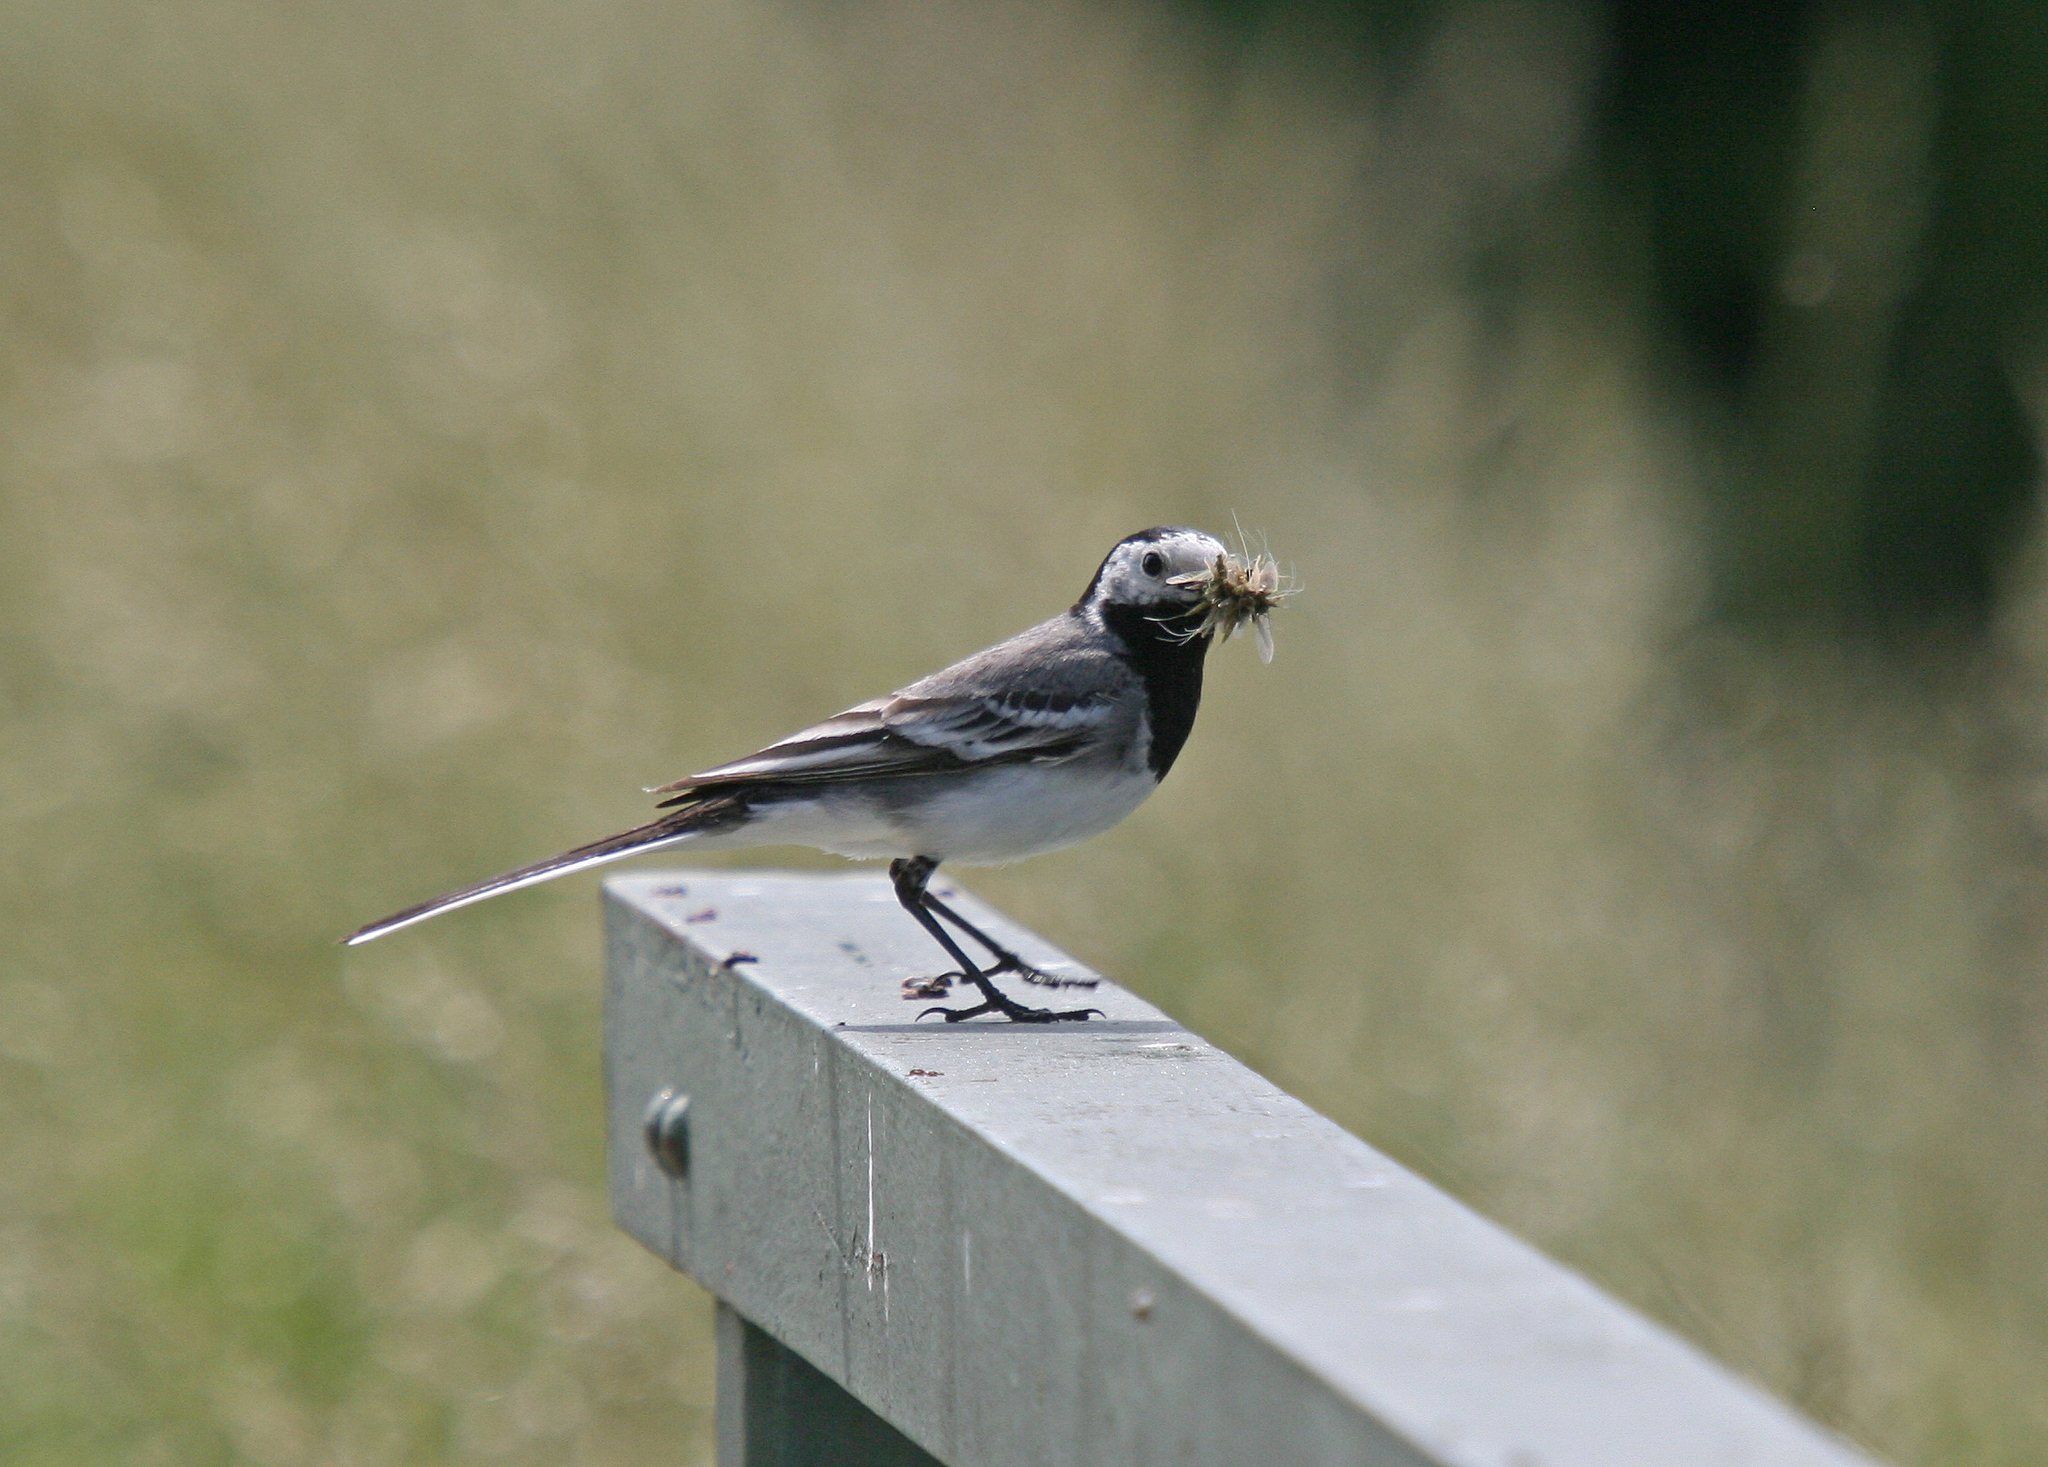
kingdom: Animalia
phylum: Chordata
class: Aves
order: Passeriformes
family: Motacillidae
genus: Motacilla
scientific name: Motacilla alba
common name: White wagtail
